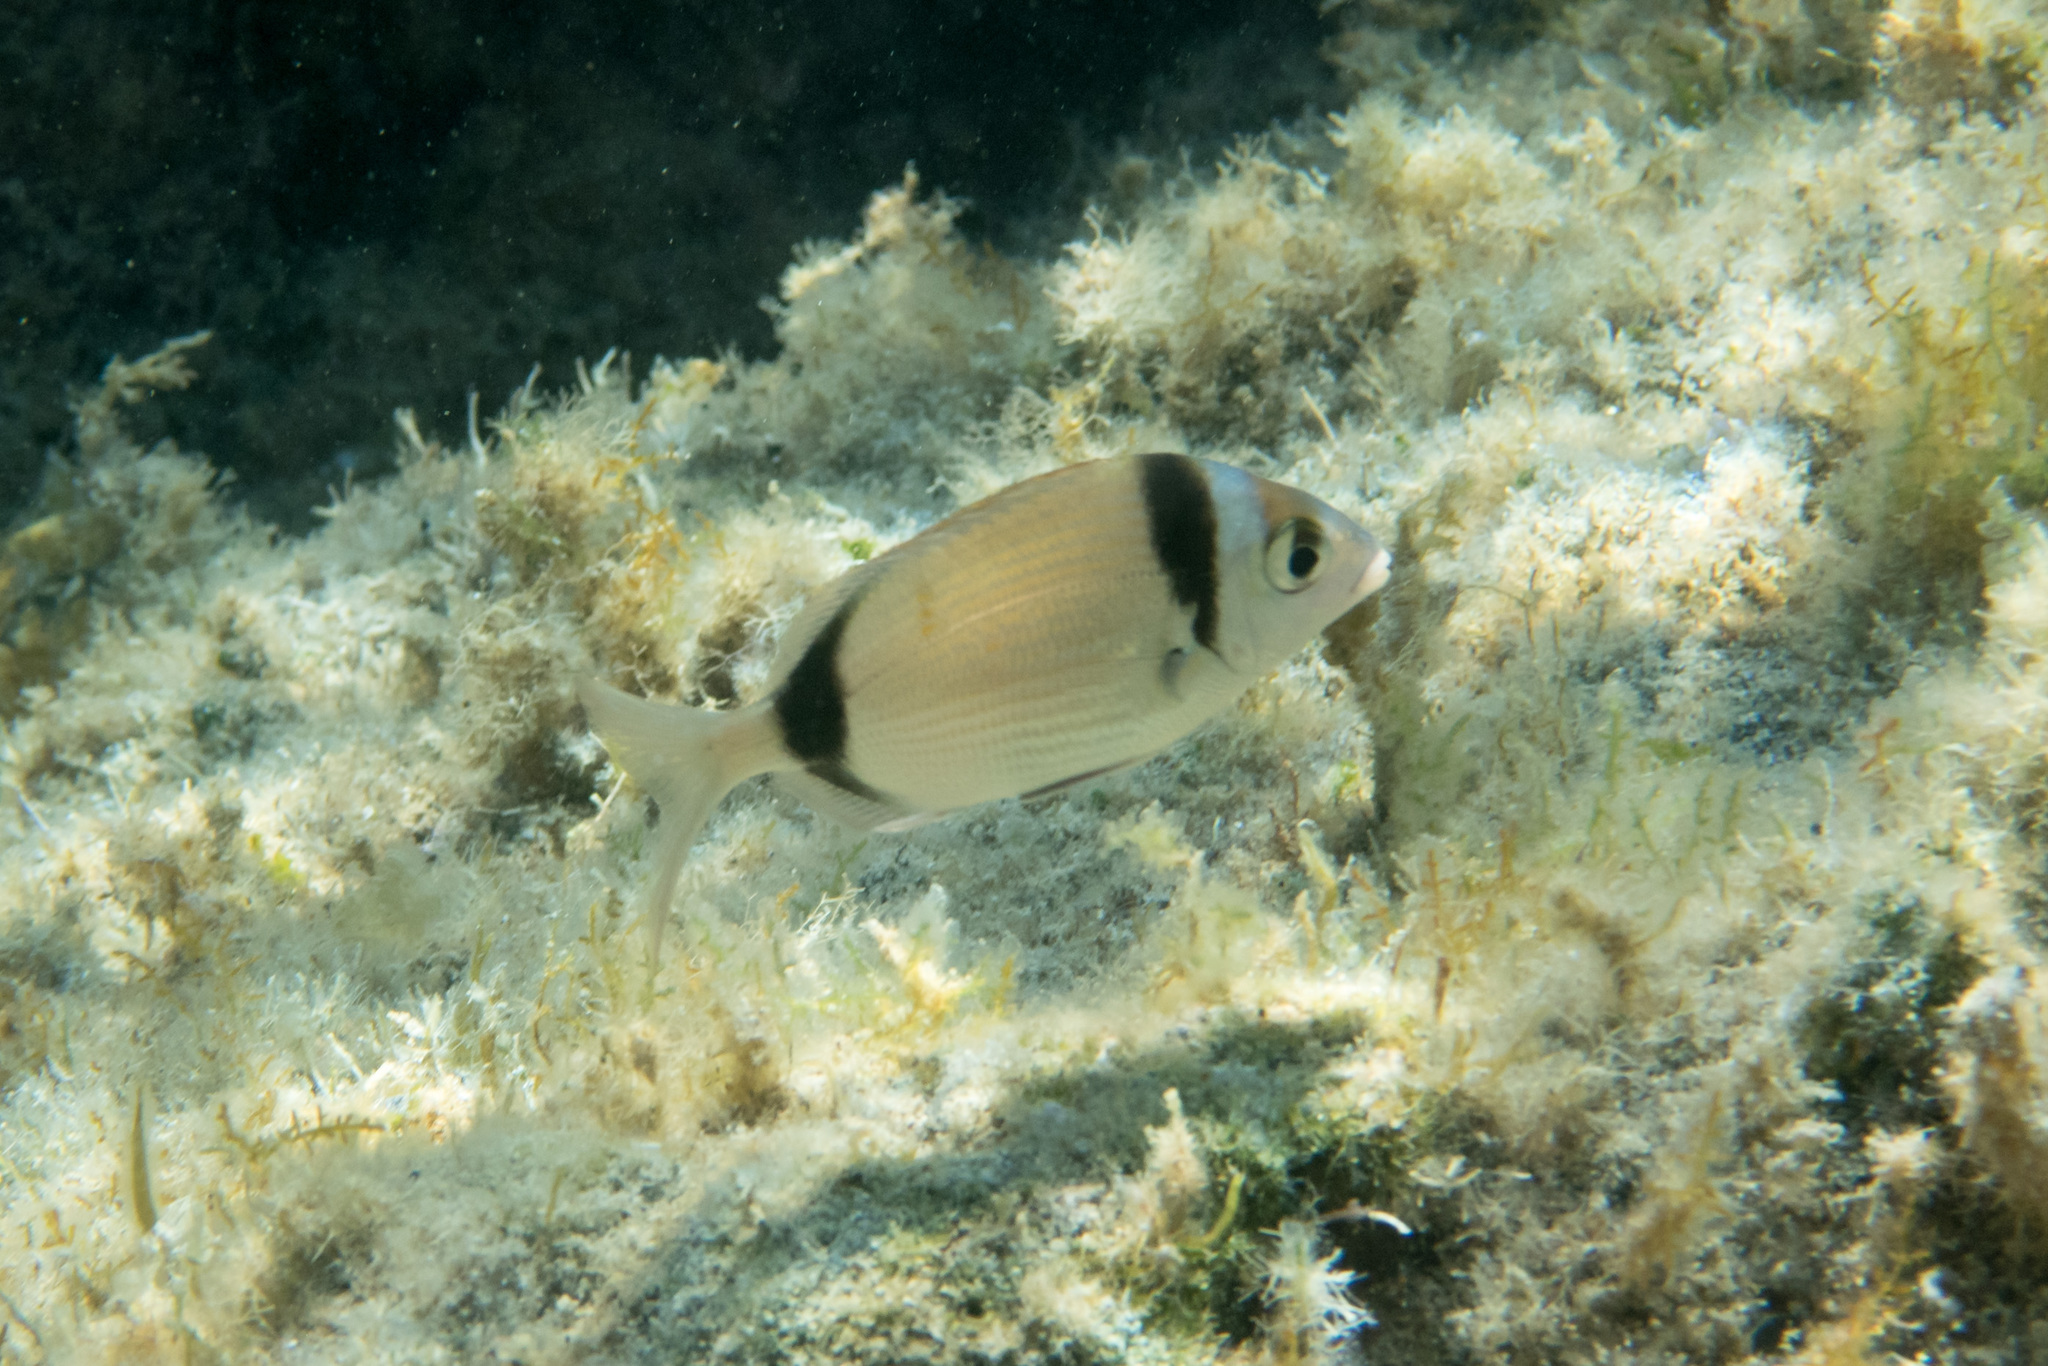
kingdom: Animalia
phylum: Chordata
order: Perciformes
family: Sparidae
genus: Diplodus
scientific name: Diplodus vulgaris
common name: Common two-banded seabream
